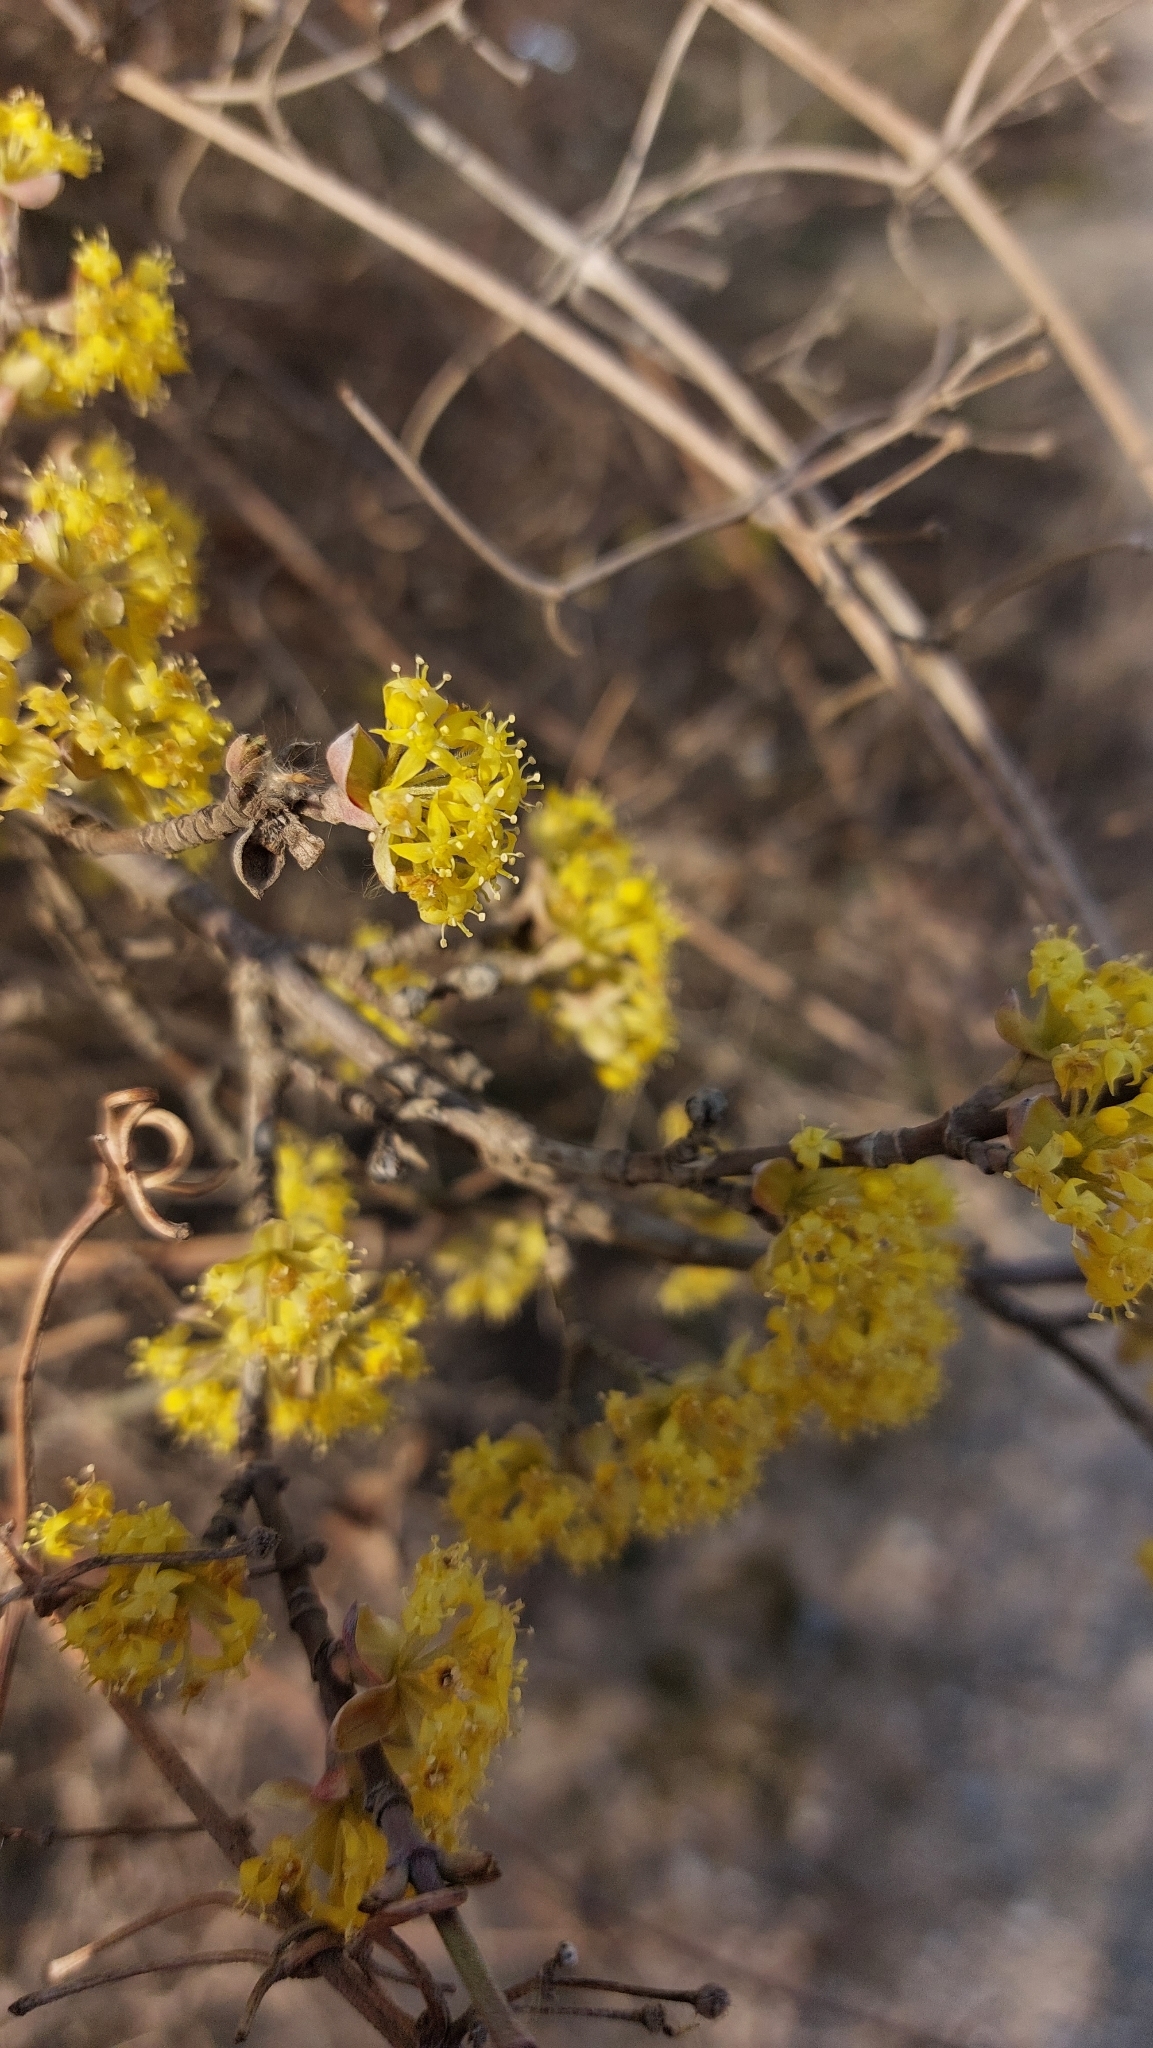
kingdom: Plantae
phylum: Tracheophyta
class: Magnoliopsida
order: Cornales
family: Cornaceae
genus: Cornus
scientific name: Cornus mas
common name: Cornelian-cherry
